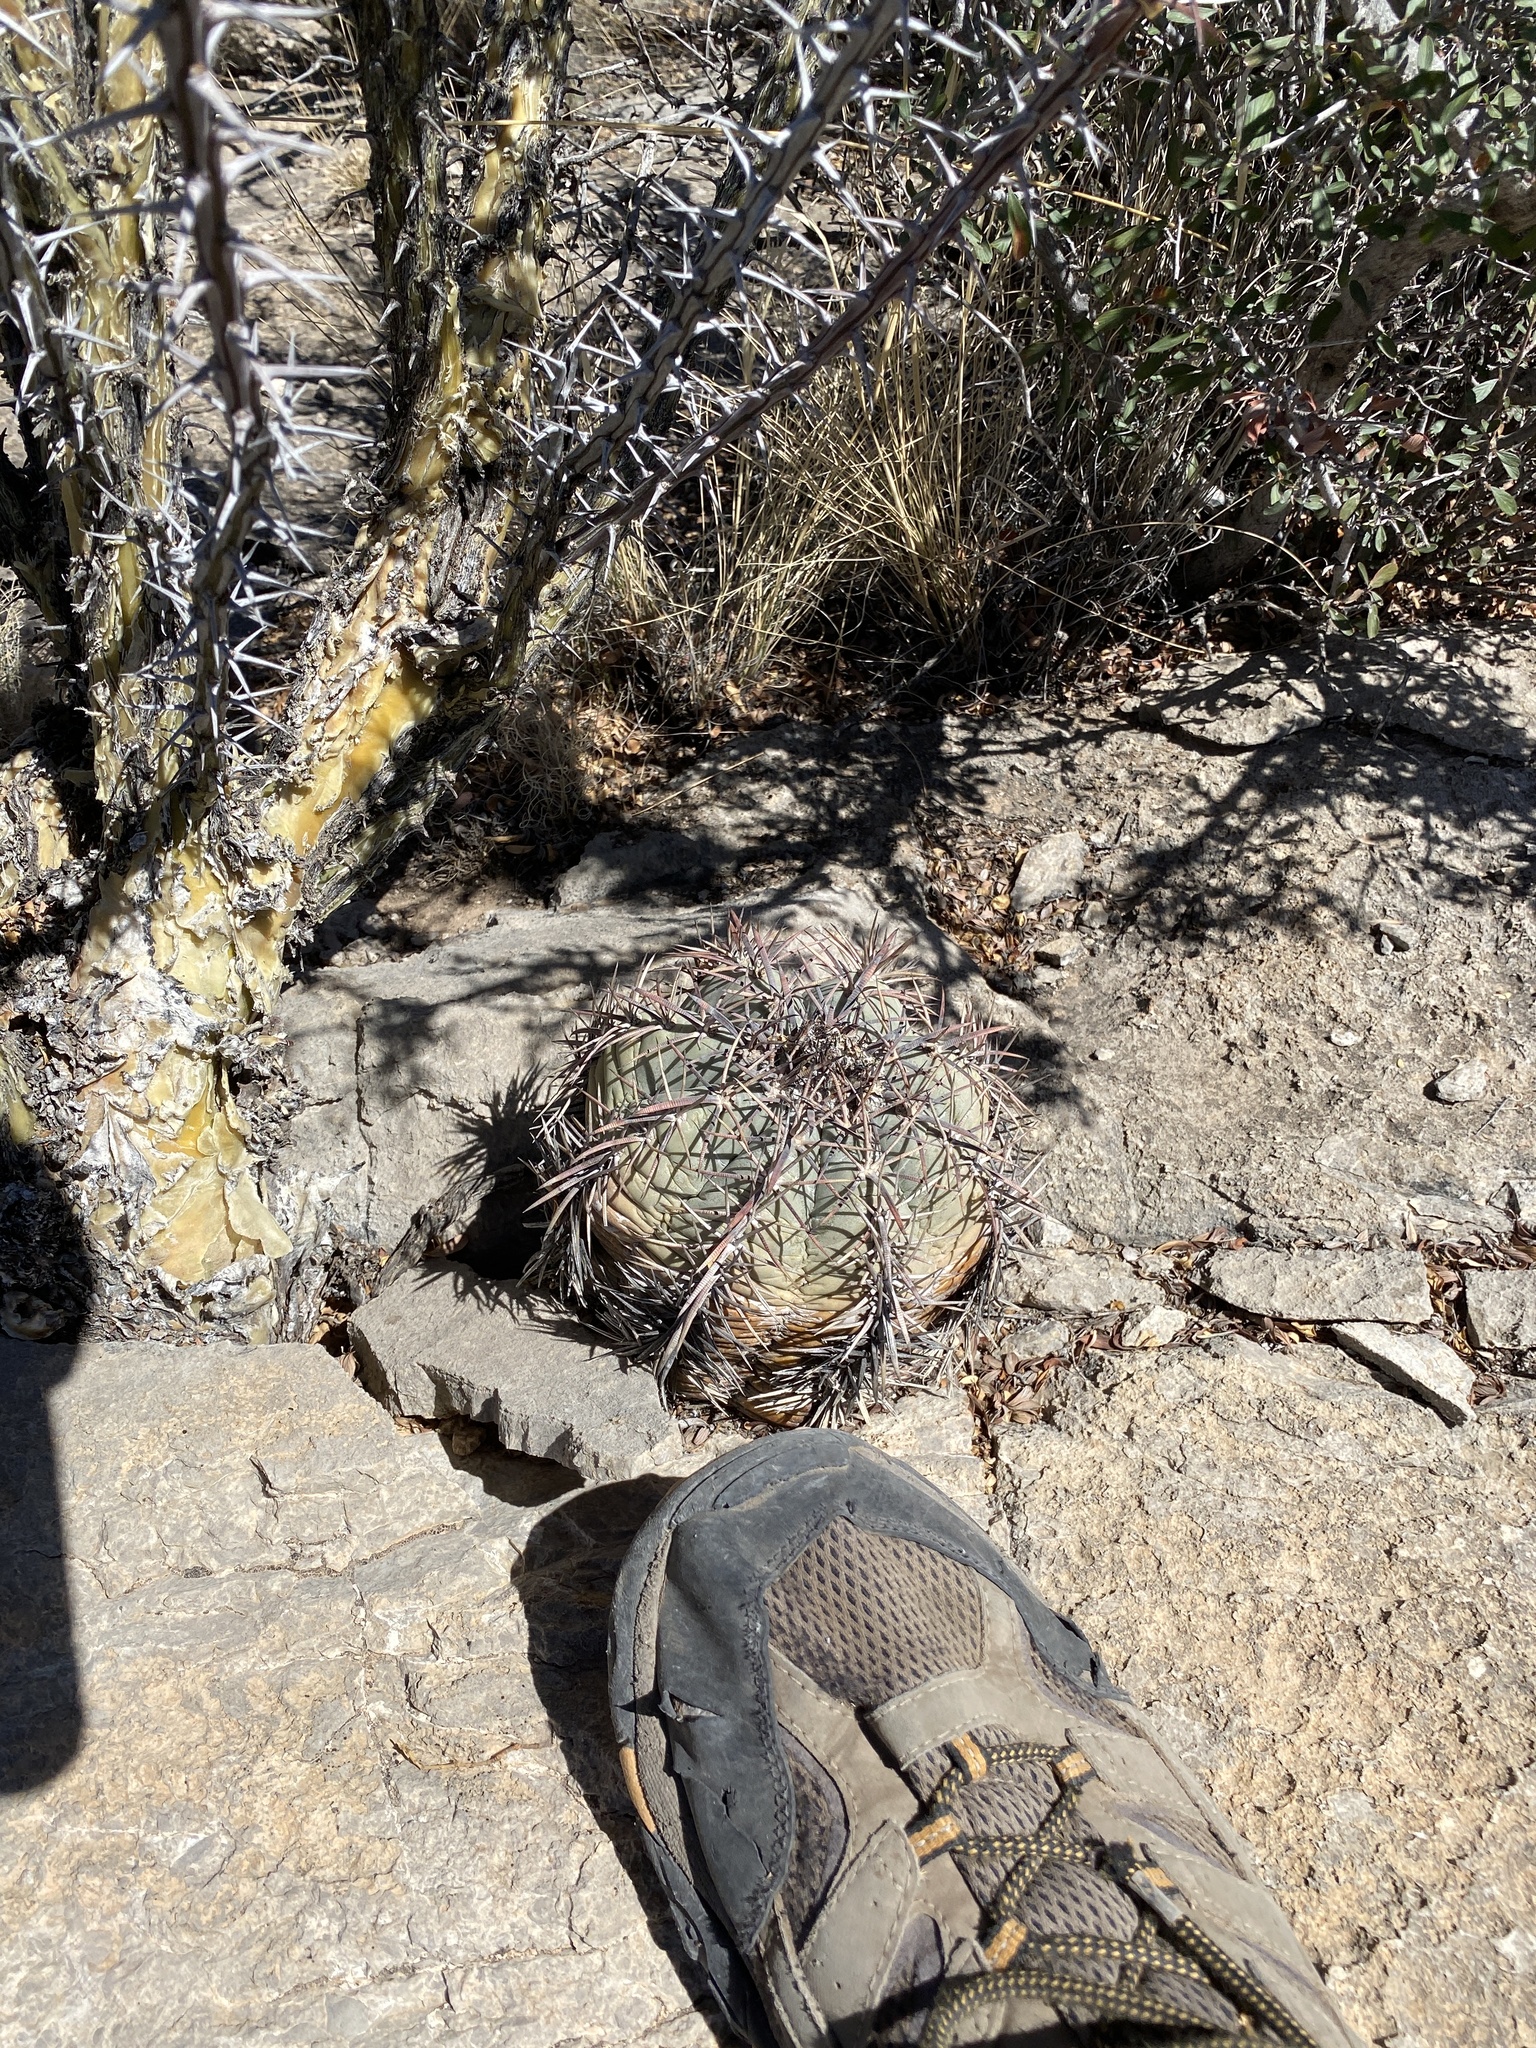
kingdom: Plantae
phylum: Tracheophyta
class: Magnoliopsida
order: Caryophyllales
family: Cactaceae
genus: Echinocactus
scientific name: Echinocactus horizonthalonius
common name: Devilshead
